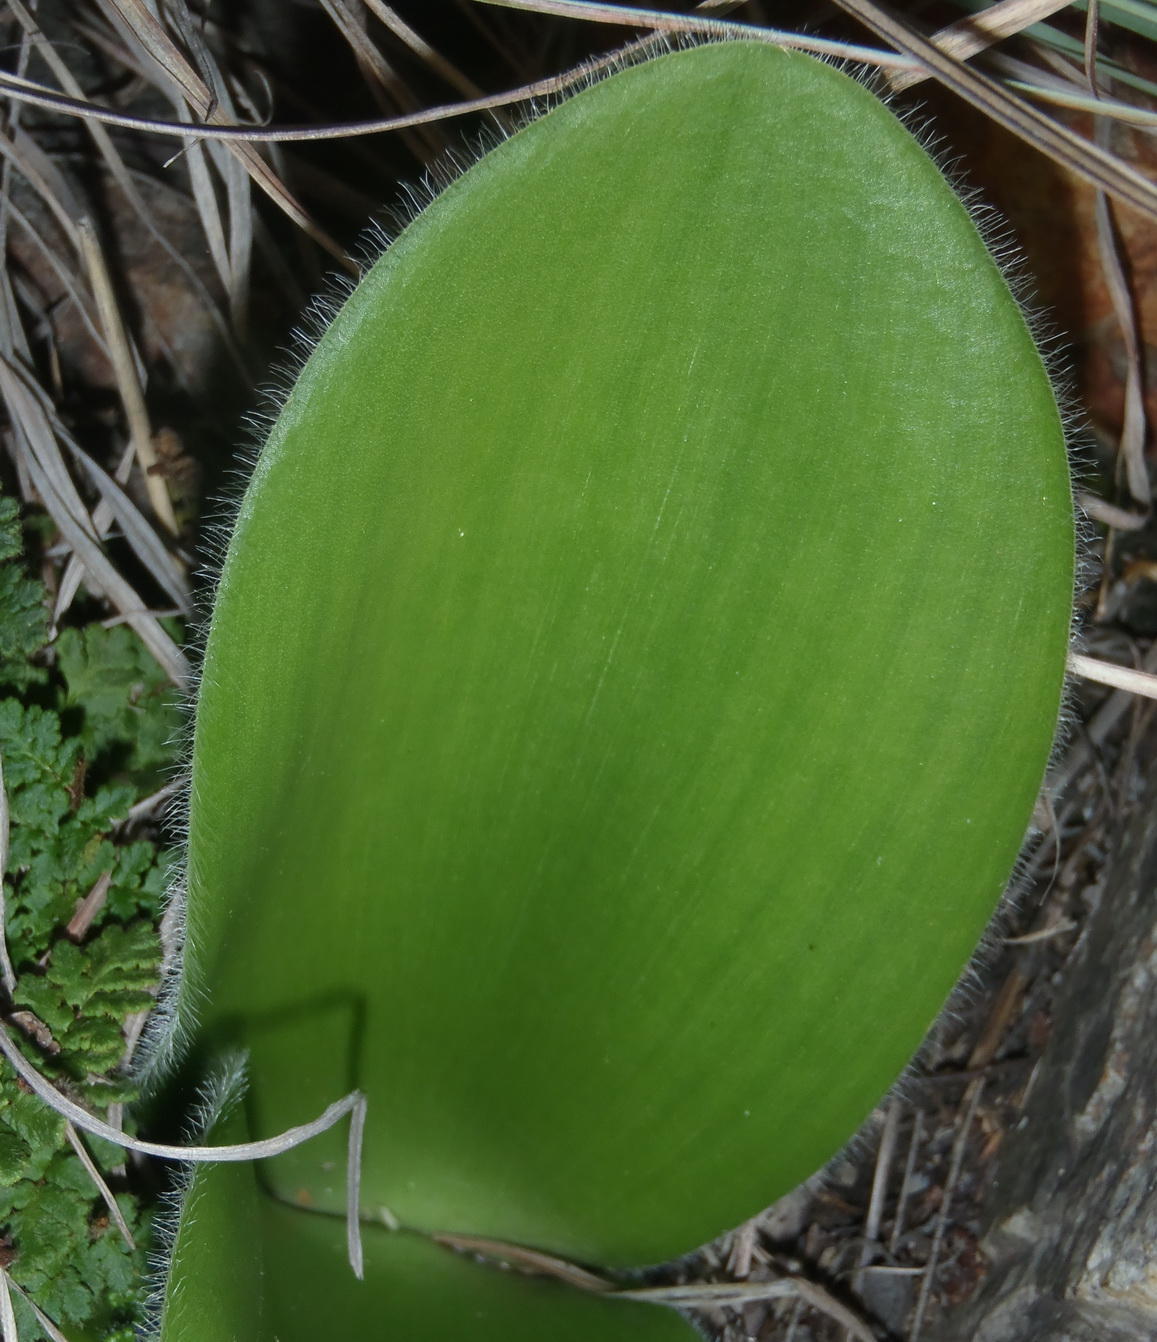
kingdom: Plantae
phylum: Tracheophyta
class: Liliopsida
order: Asparagales
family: Amaryllidaceae
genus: Haemanthus
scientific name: Haemanthus albiflos
